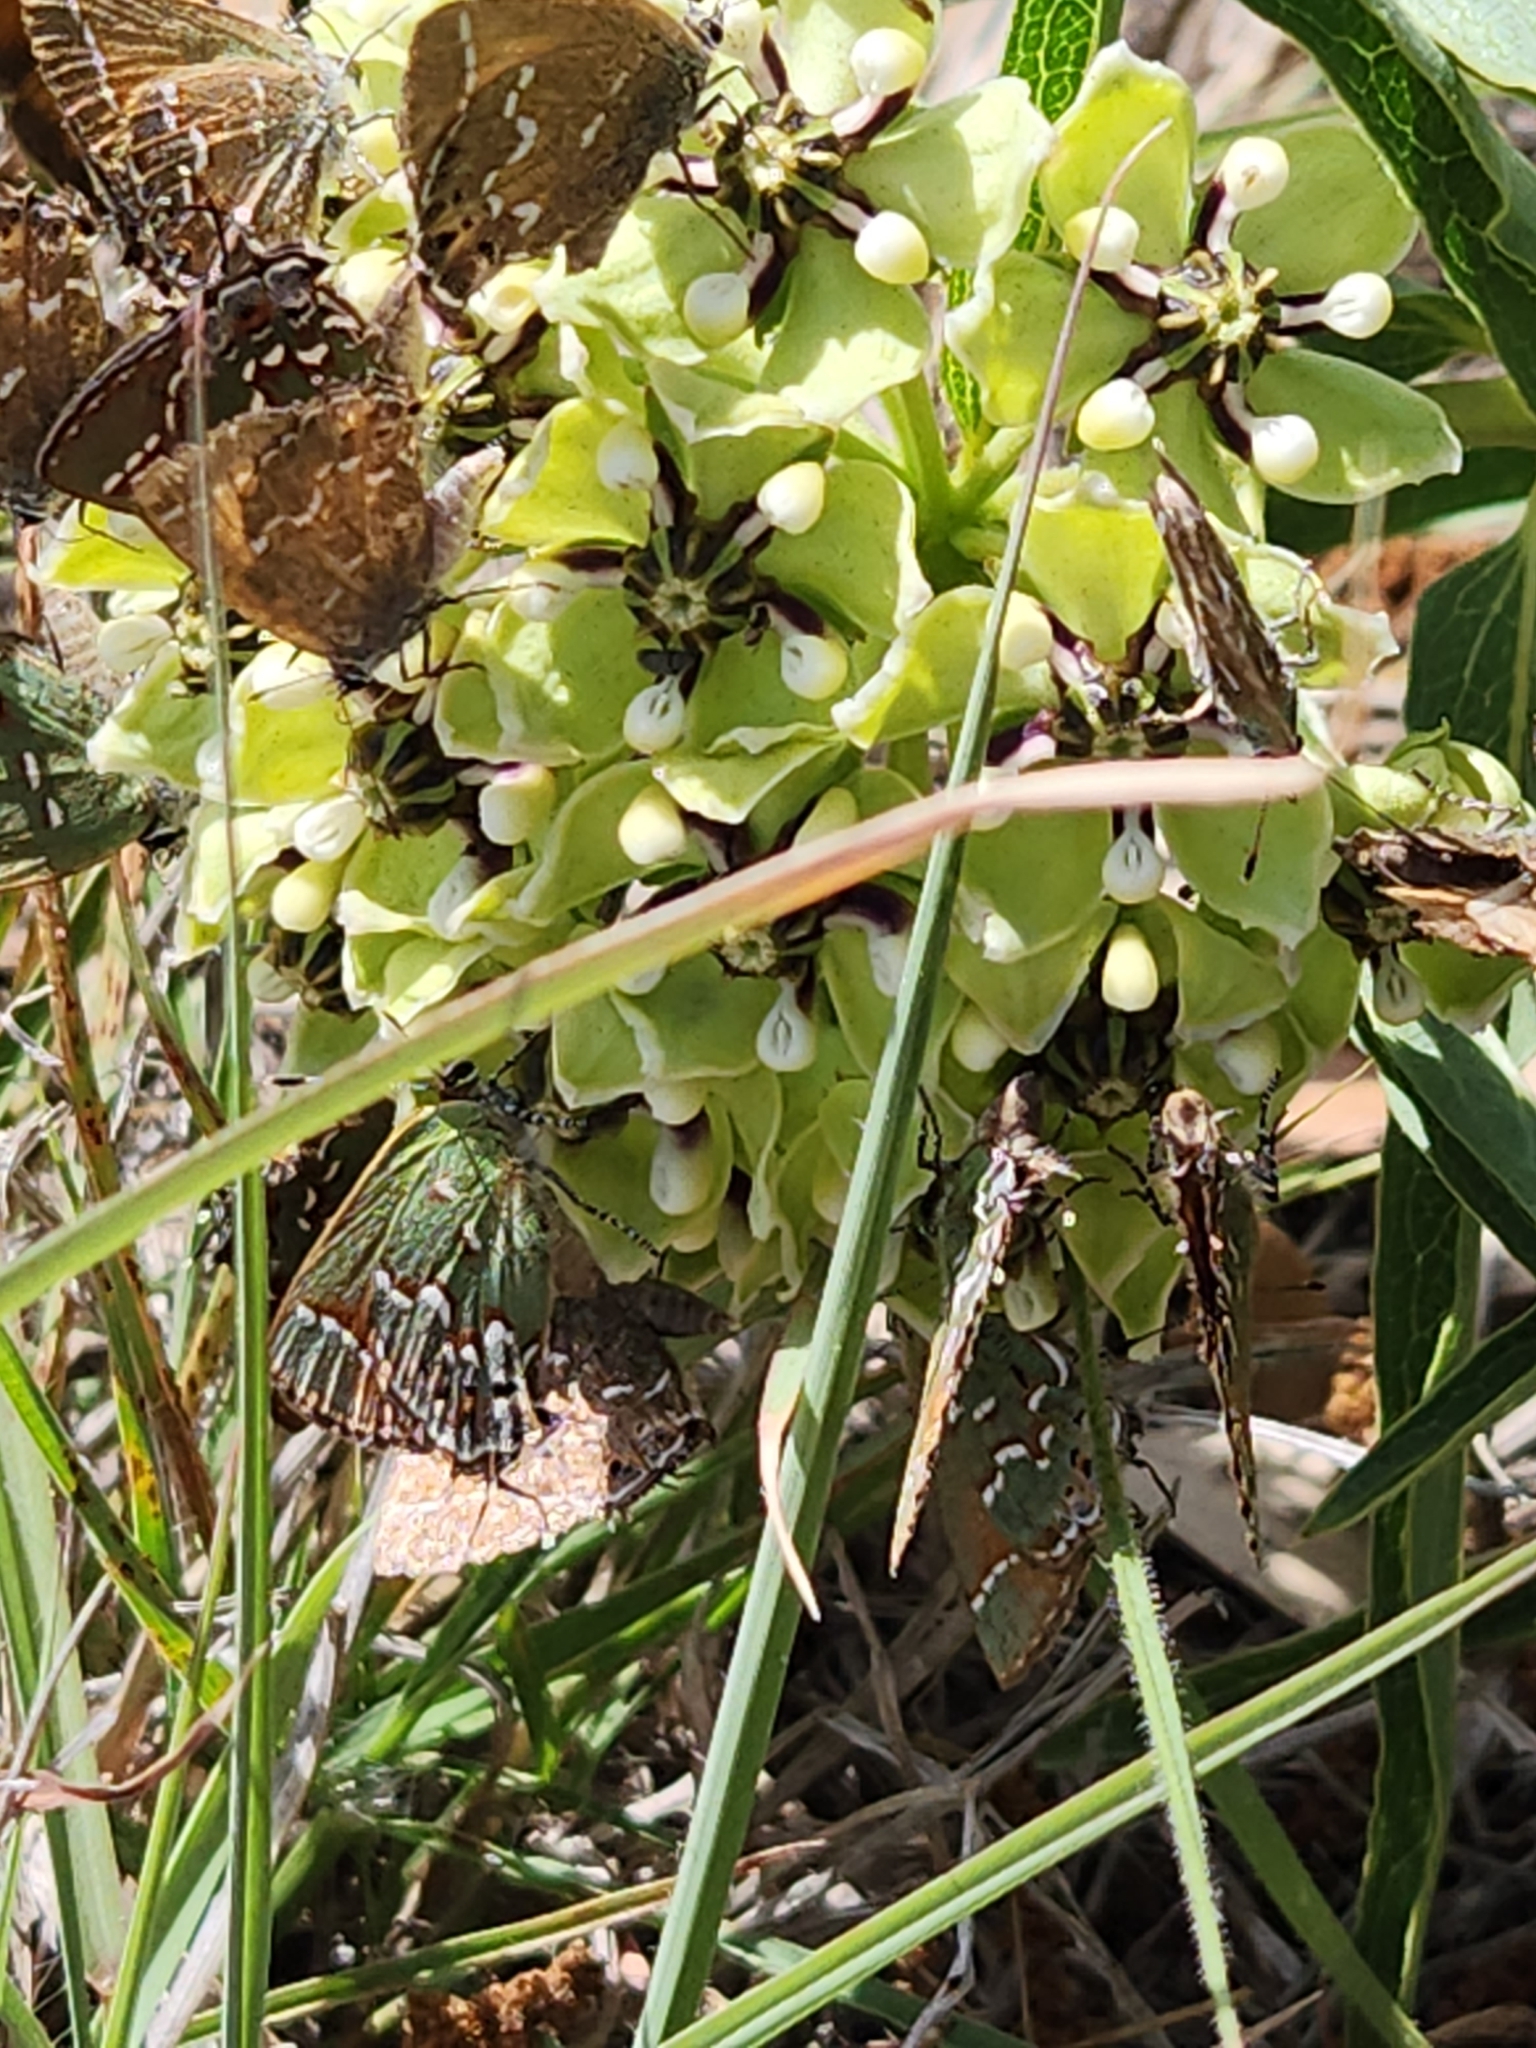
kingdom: Plantae
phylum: Tracheophyta
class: Magnoliopsida
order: Gentianales
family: Apocynaceae
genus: Asclepias
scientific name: Asclepias asperula
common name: Antelope horns
